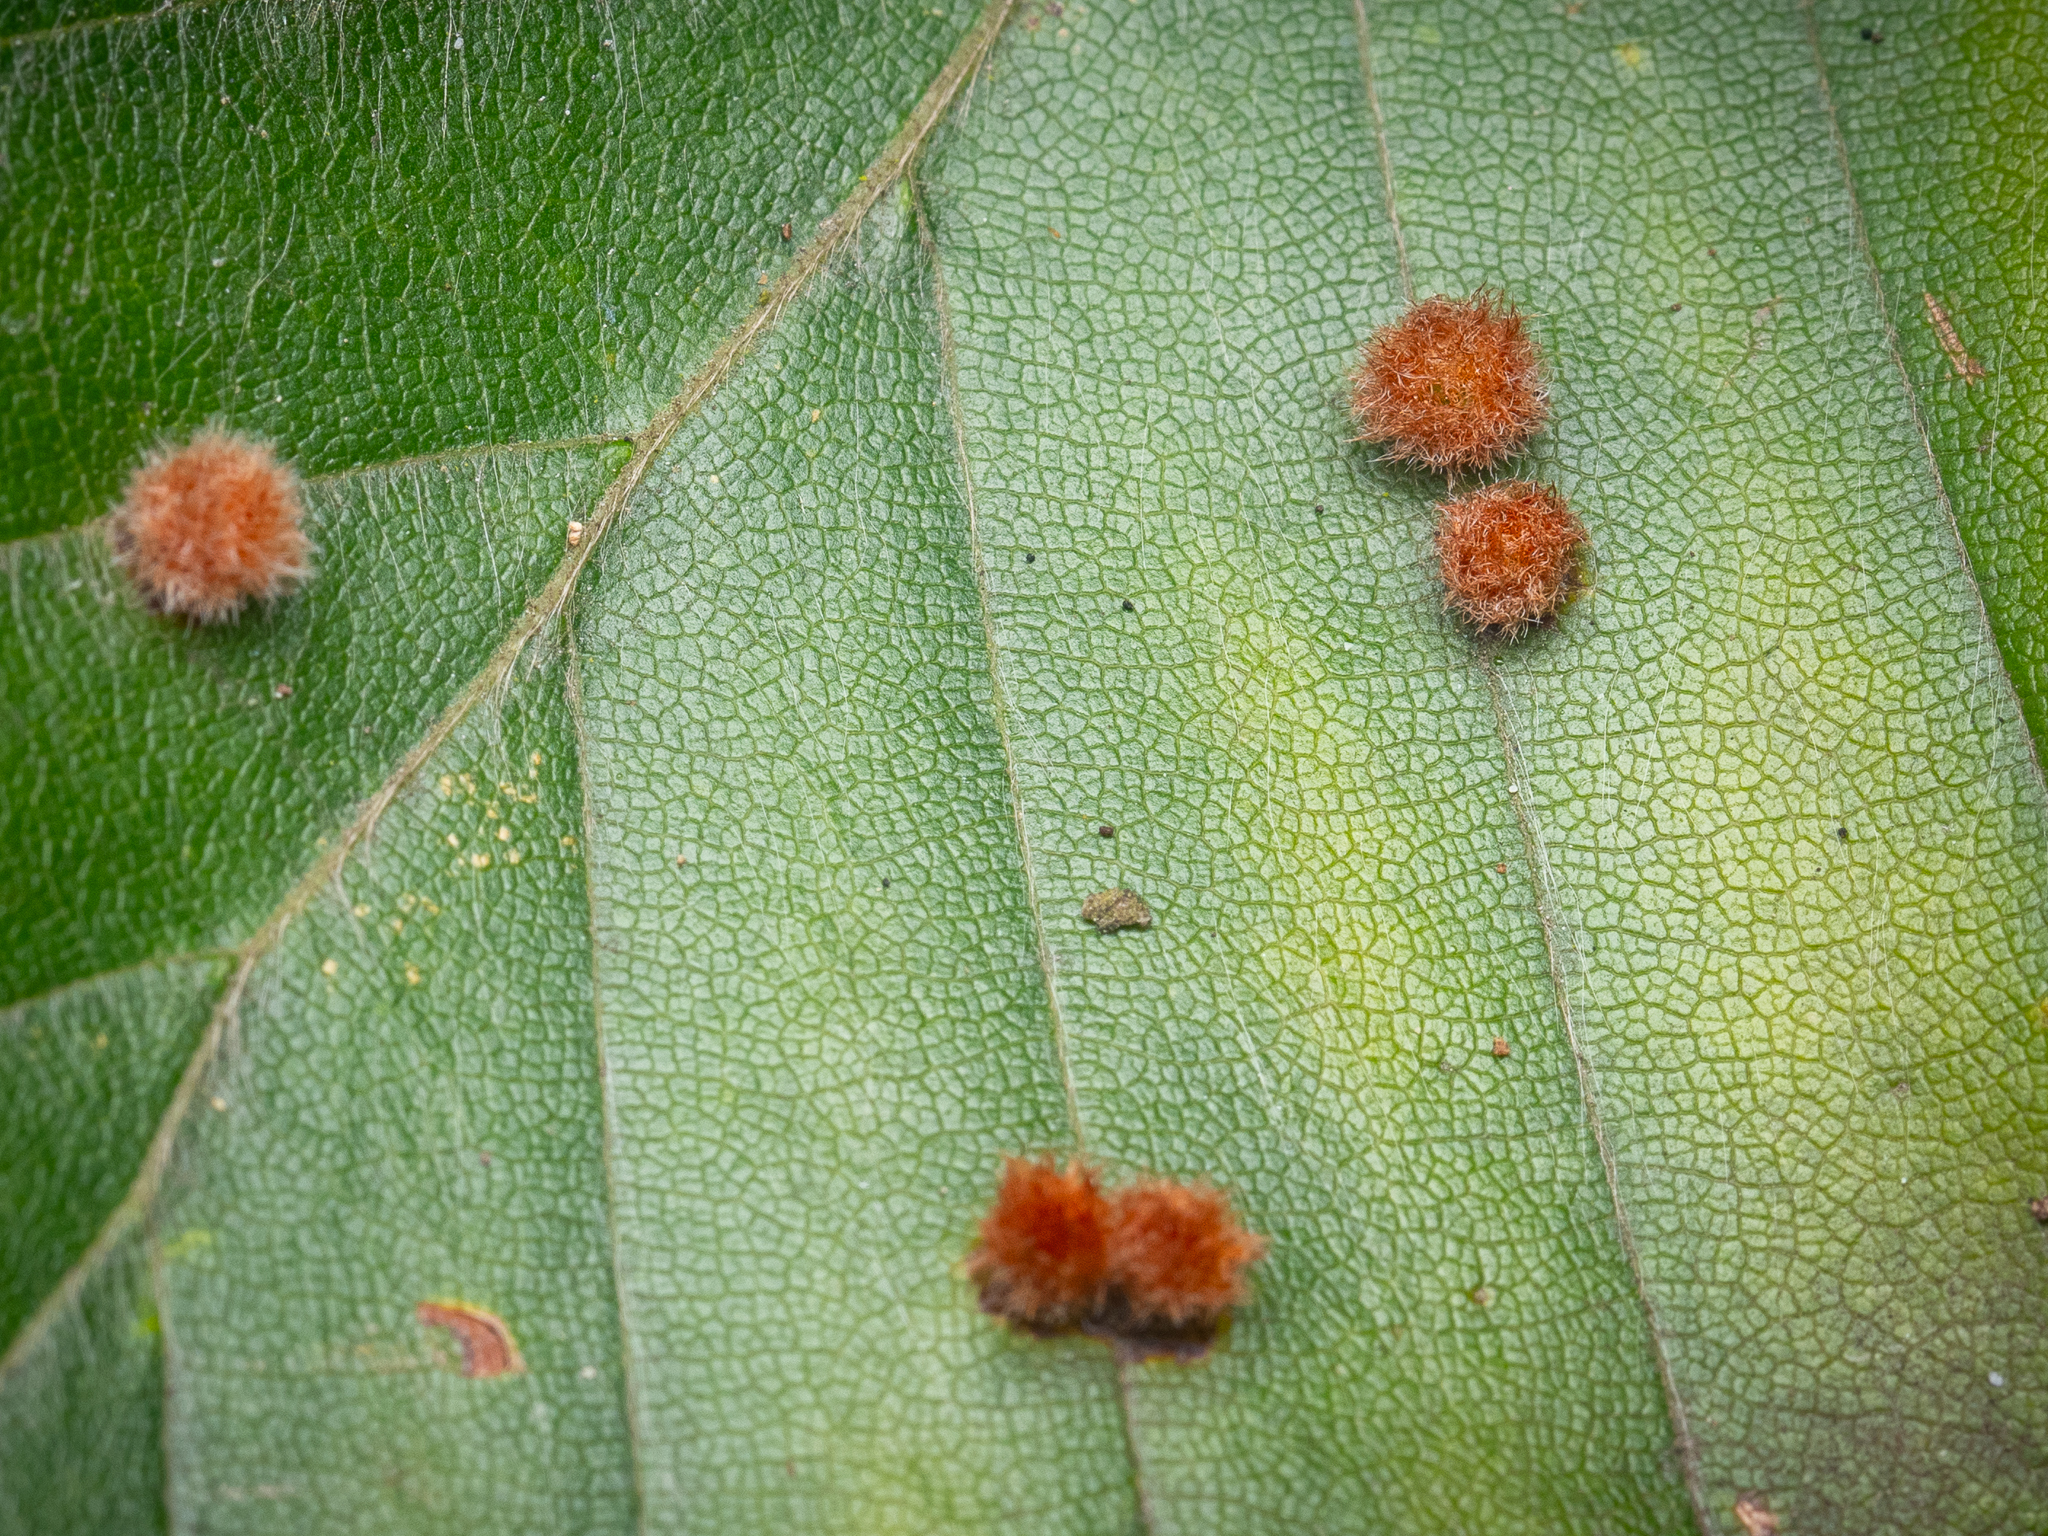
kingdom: Animalia
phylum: Arthropoda
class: Insecta
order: Diptera
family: Cecidomyiidae
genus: Hartigiola
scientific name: Hartigiola annulipes
